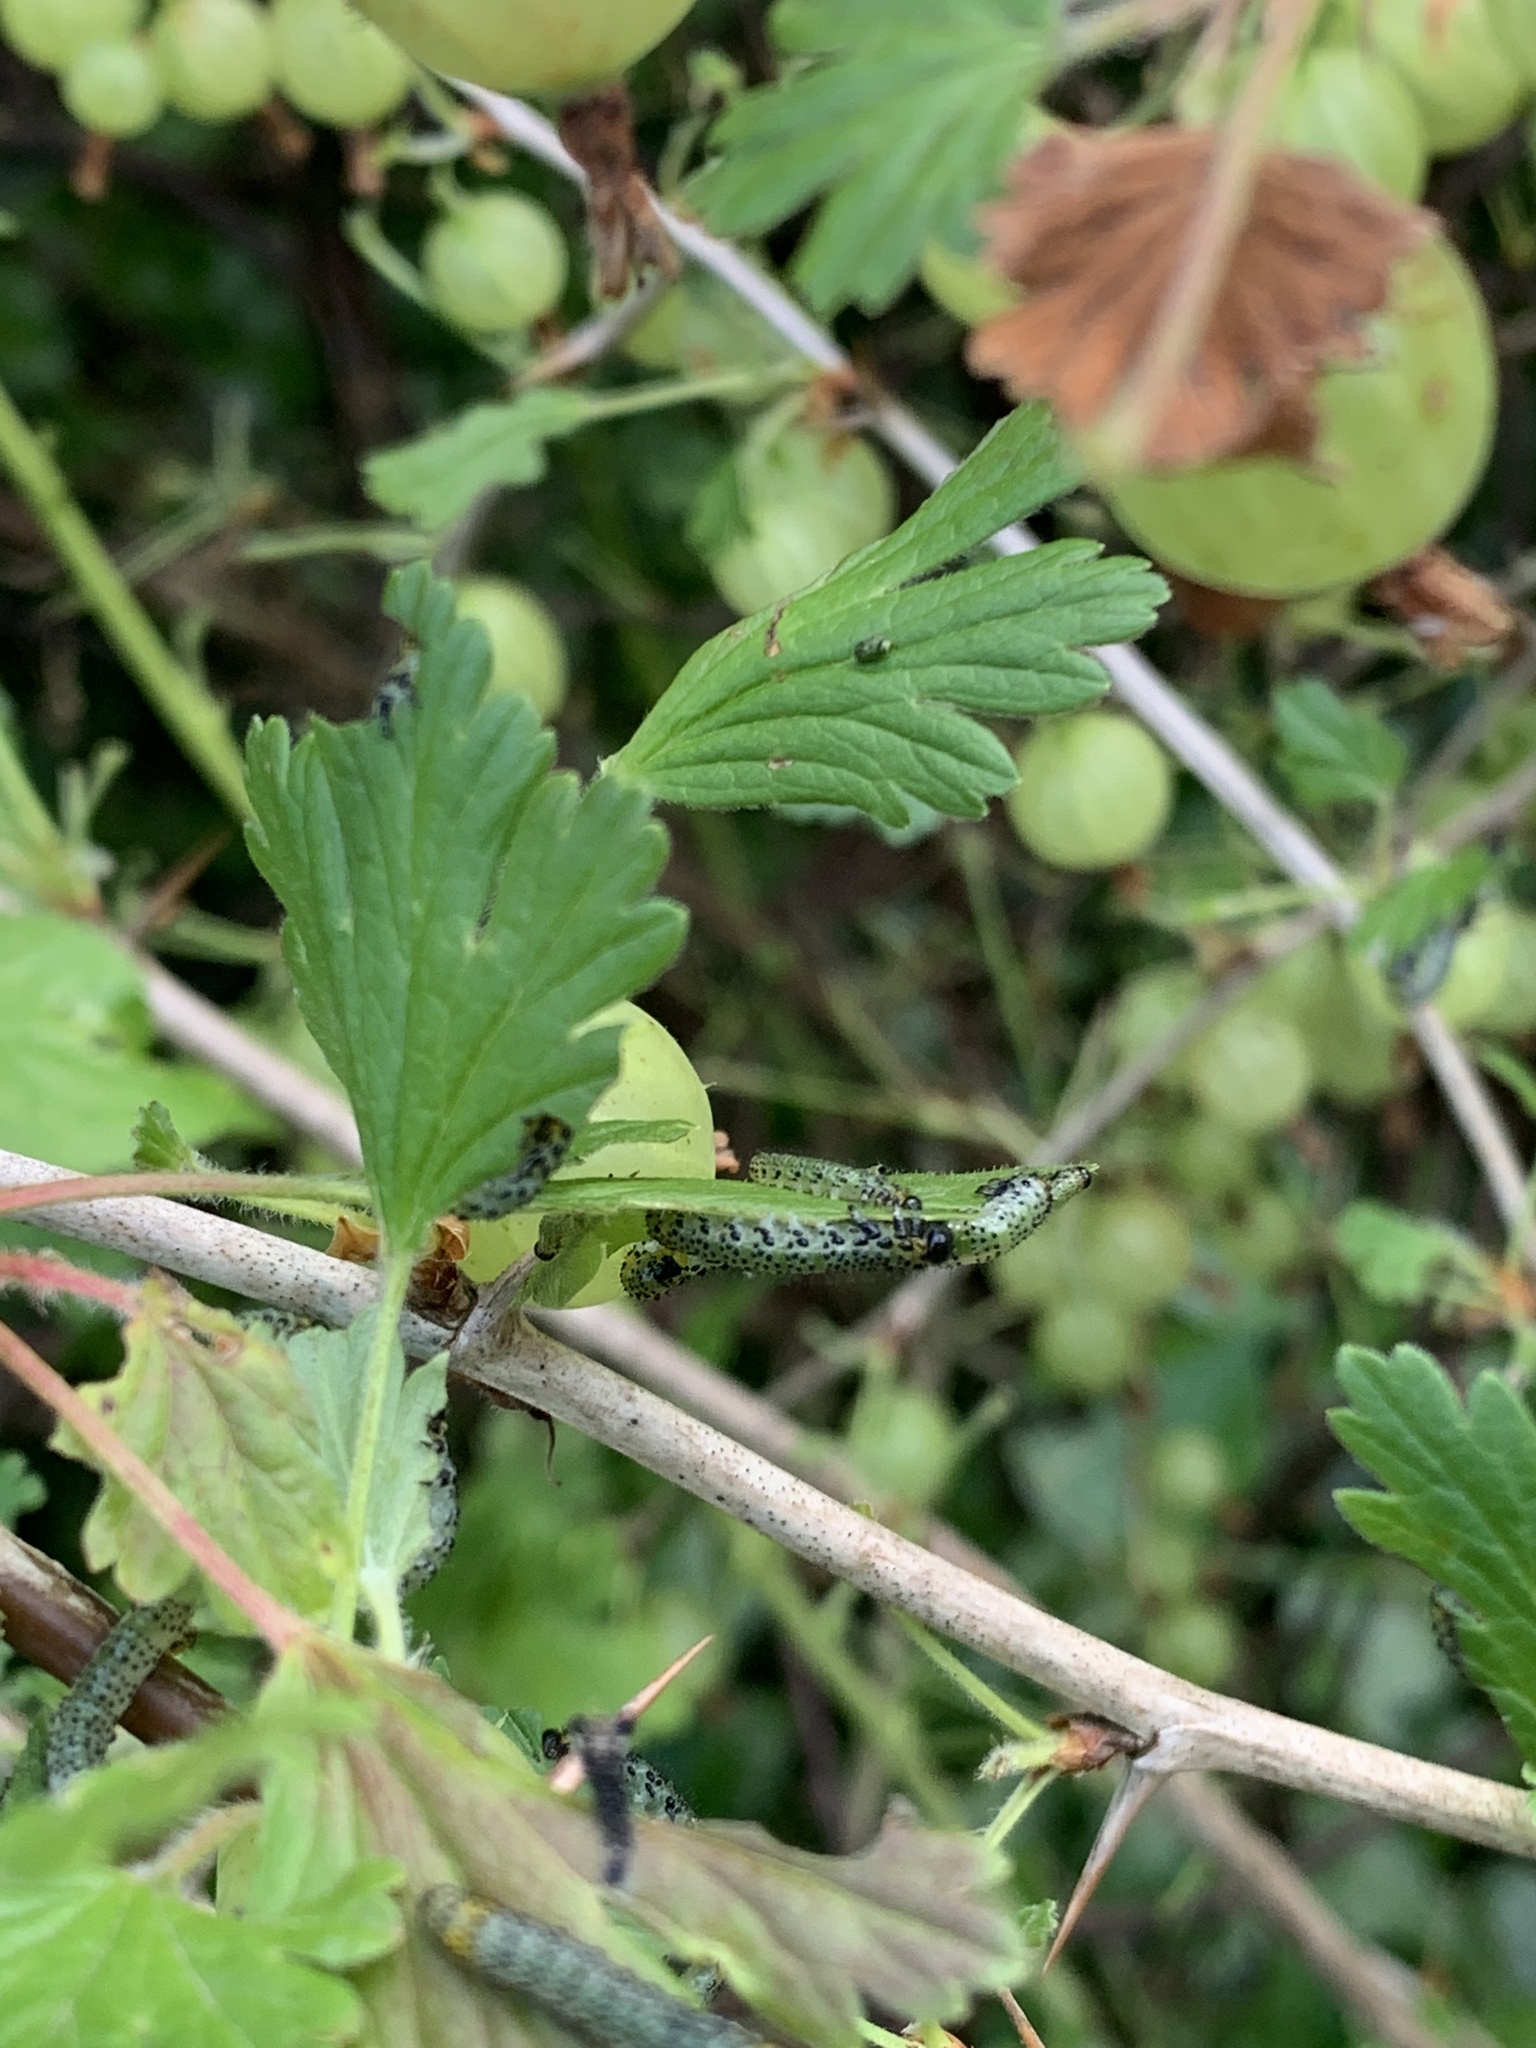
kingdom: Animalia
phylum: Arthropoda
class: Insecta
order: Hymenoptera
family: Tenthredinidae
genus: Nematus
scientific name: Nematus ribesii
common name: Imported currantworm
